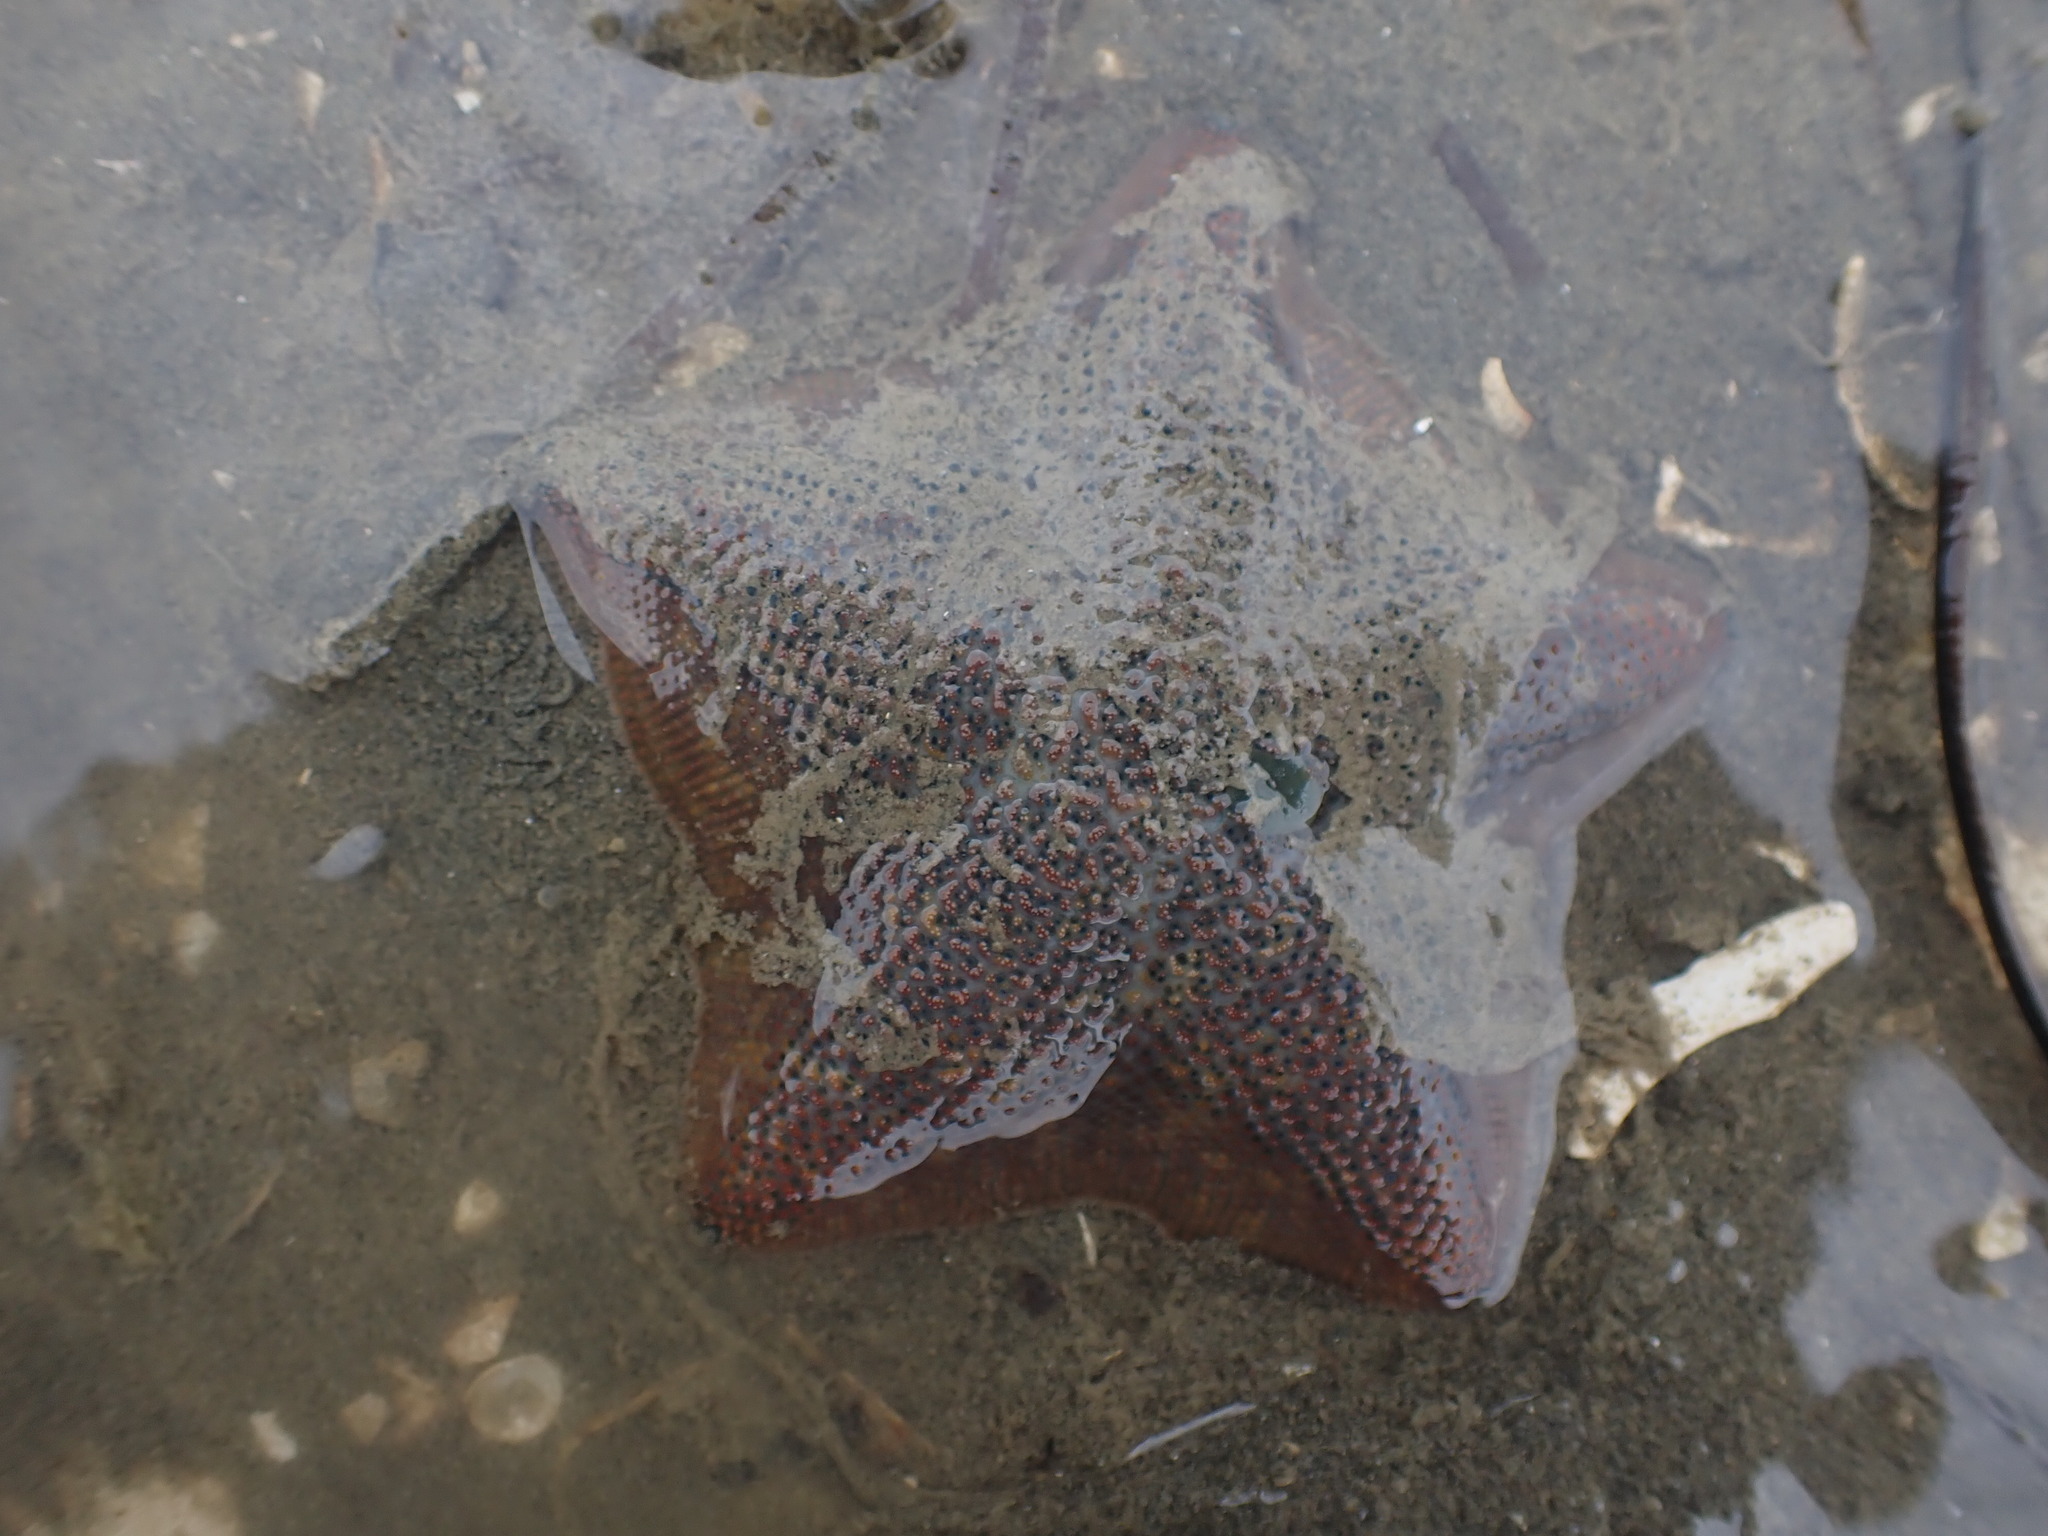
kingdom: Animalia
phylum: Echinodermata
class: Asteroidea
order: Valvatida
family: Asterinidae
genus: Patiriella
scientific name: Patiriella regularis
